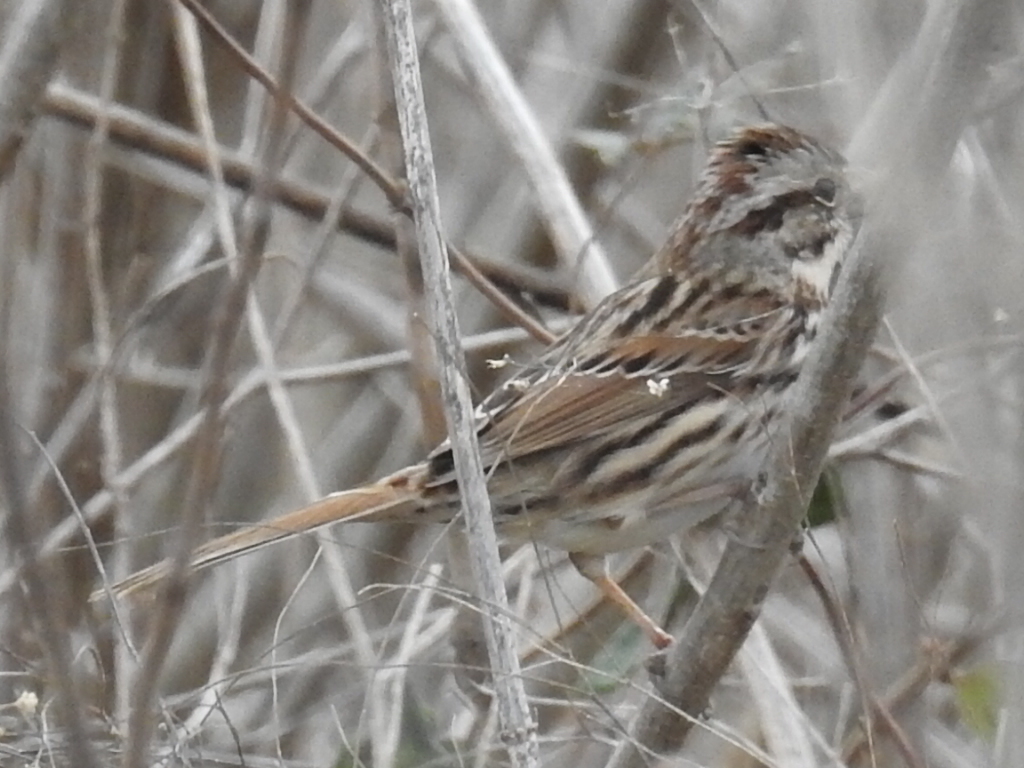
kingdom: Animalia
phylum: Chordata
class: Aves
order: Passeriformes
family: Passerellidae
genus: Melospiza
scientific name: Melospiza melodia
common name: Song sparrow
